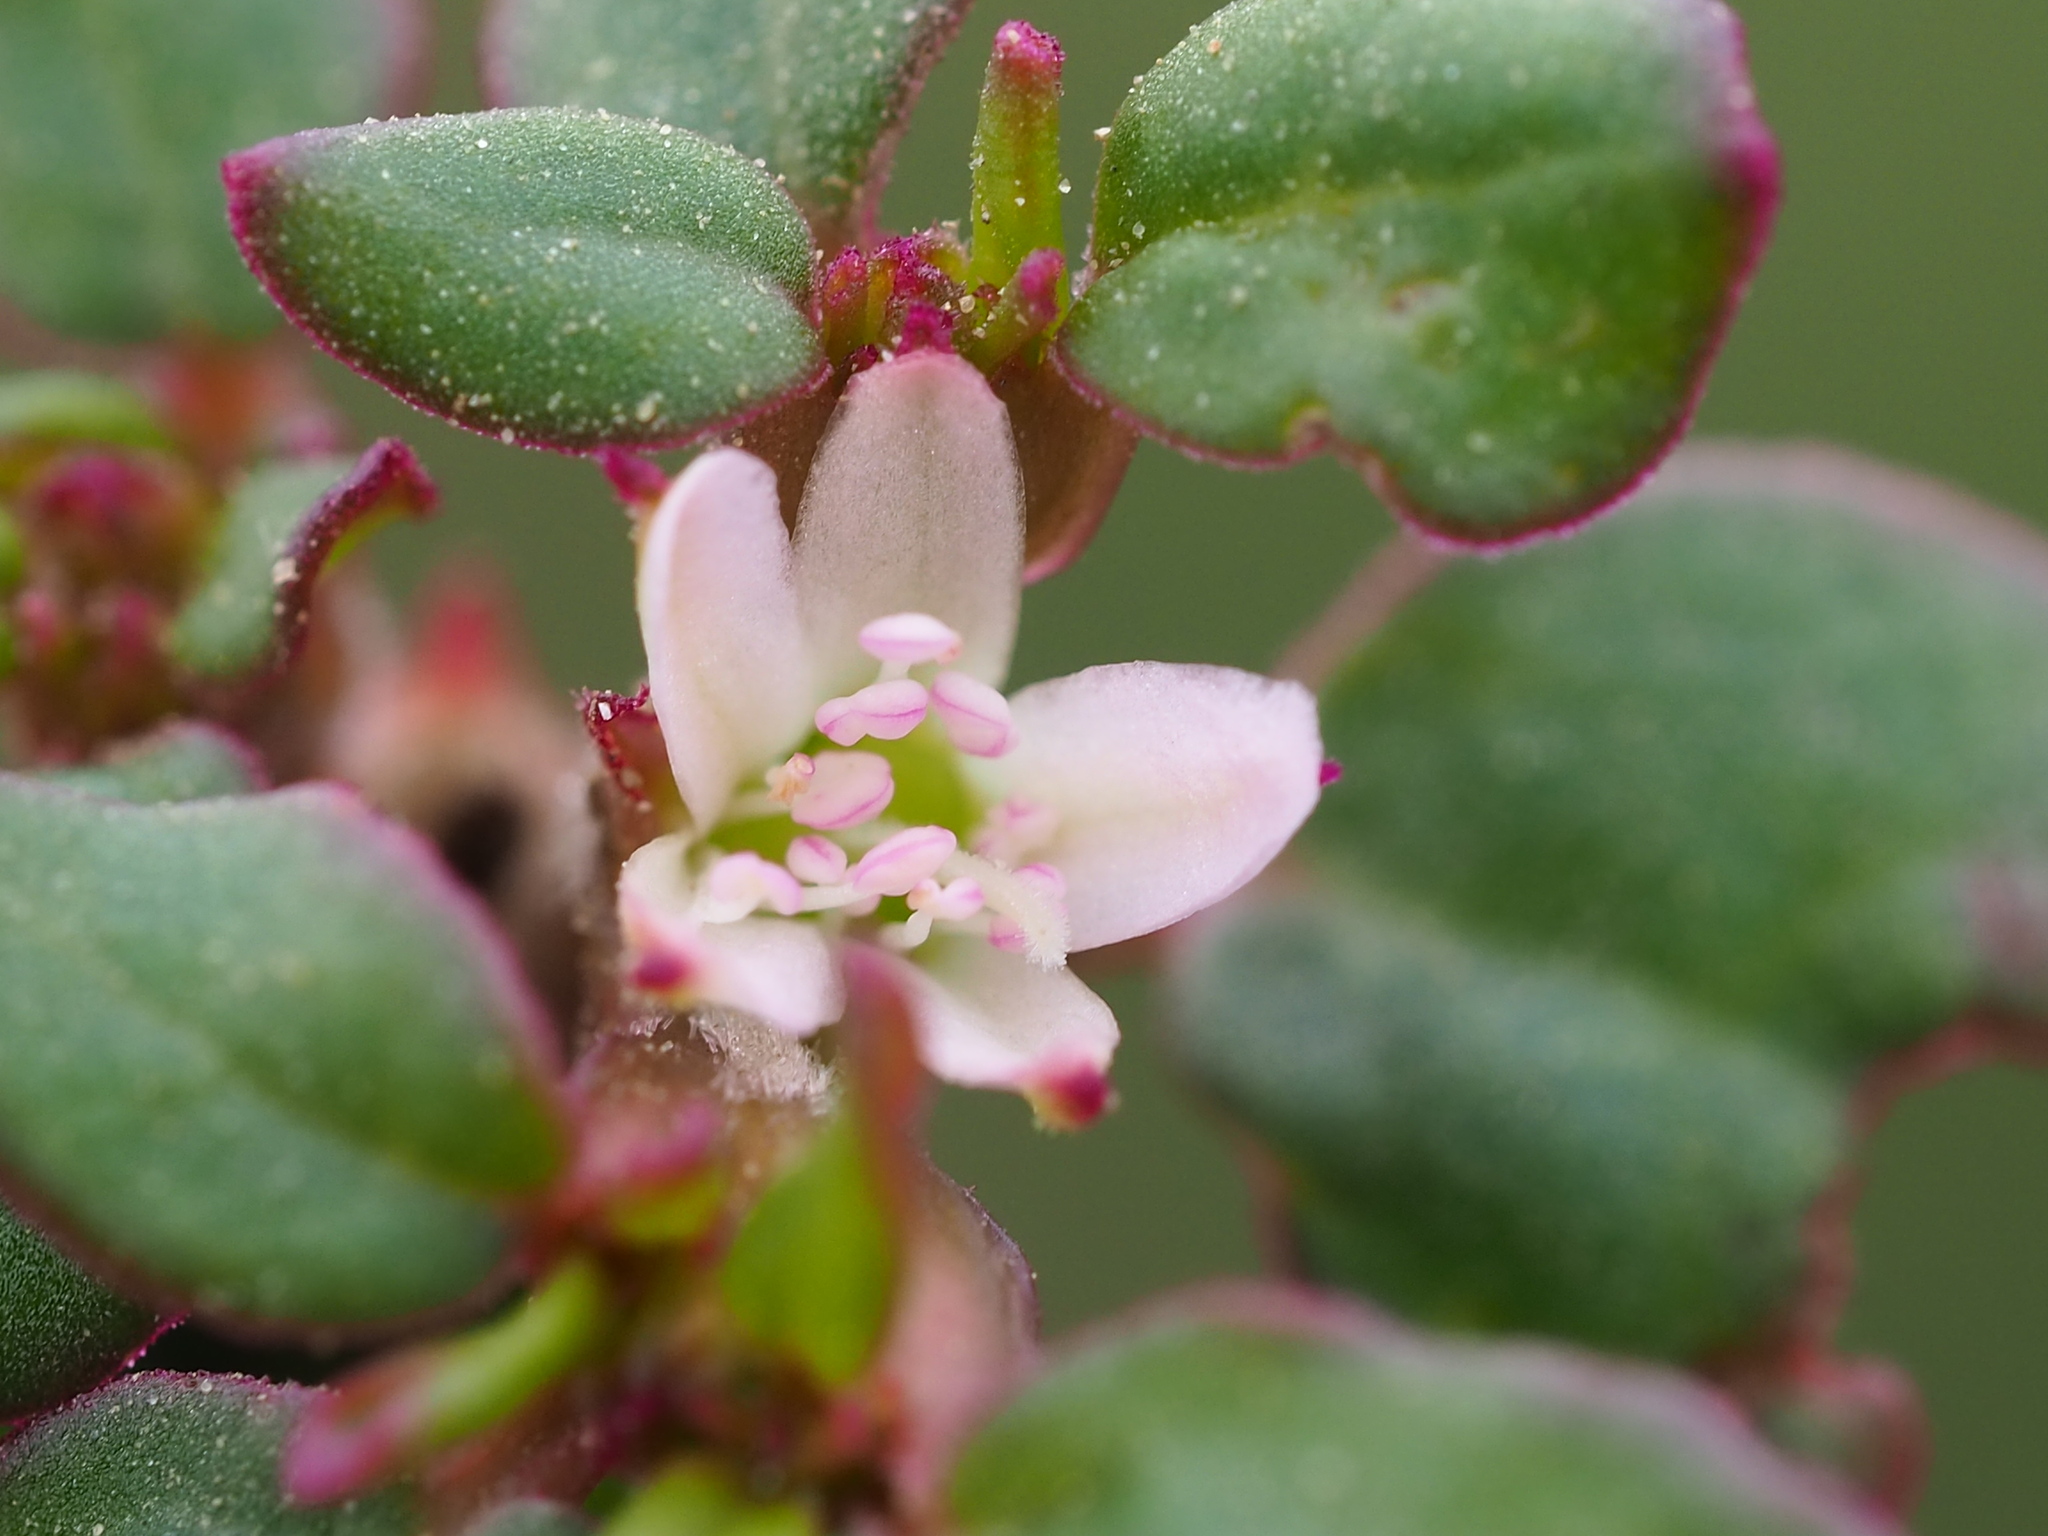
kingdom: Plantae
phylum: Tracheophyta
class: Magnoliopsida
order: Caryophyllales
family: Aizoaceae
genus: Trianthema
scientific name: Trianthema portulacastrum
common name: Desert horsepurslane
